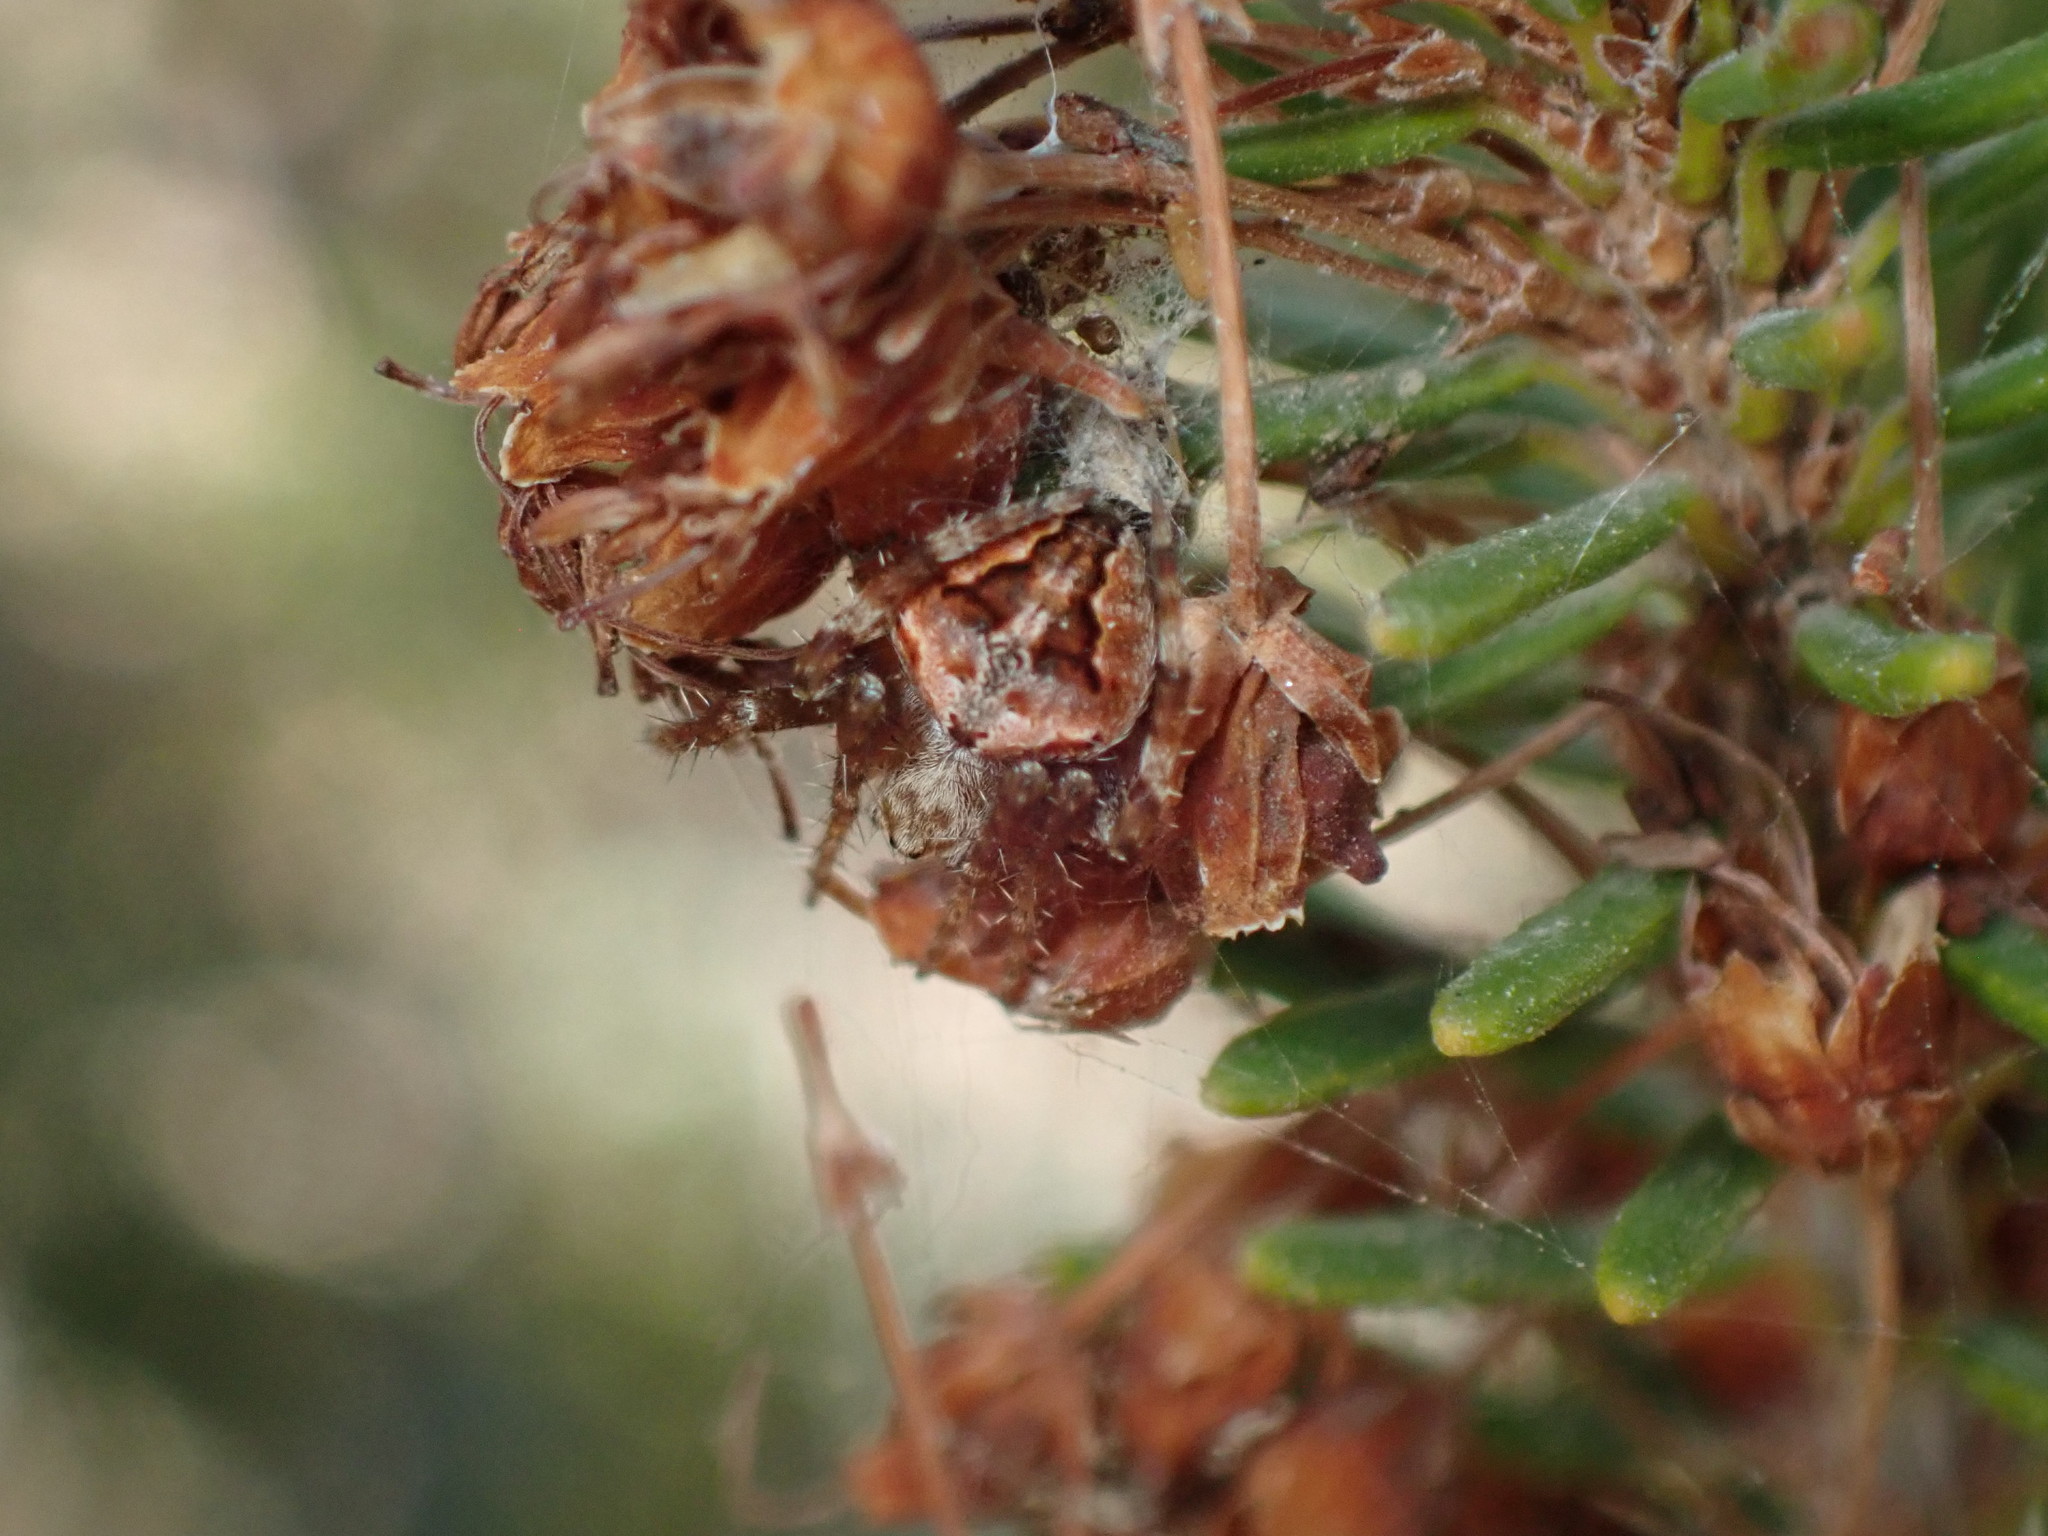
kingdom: Animalia
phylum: Arthropoda
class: Arachnida
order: Araneae
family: Araneidae
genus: Neoscona
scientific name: Neoscona subfusca
